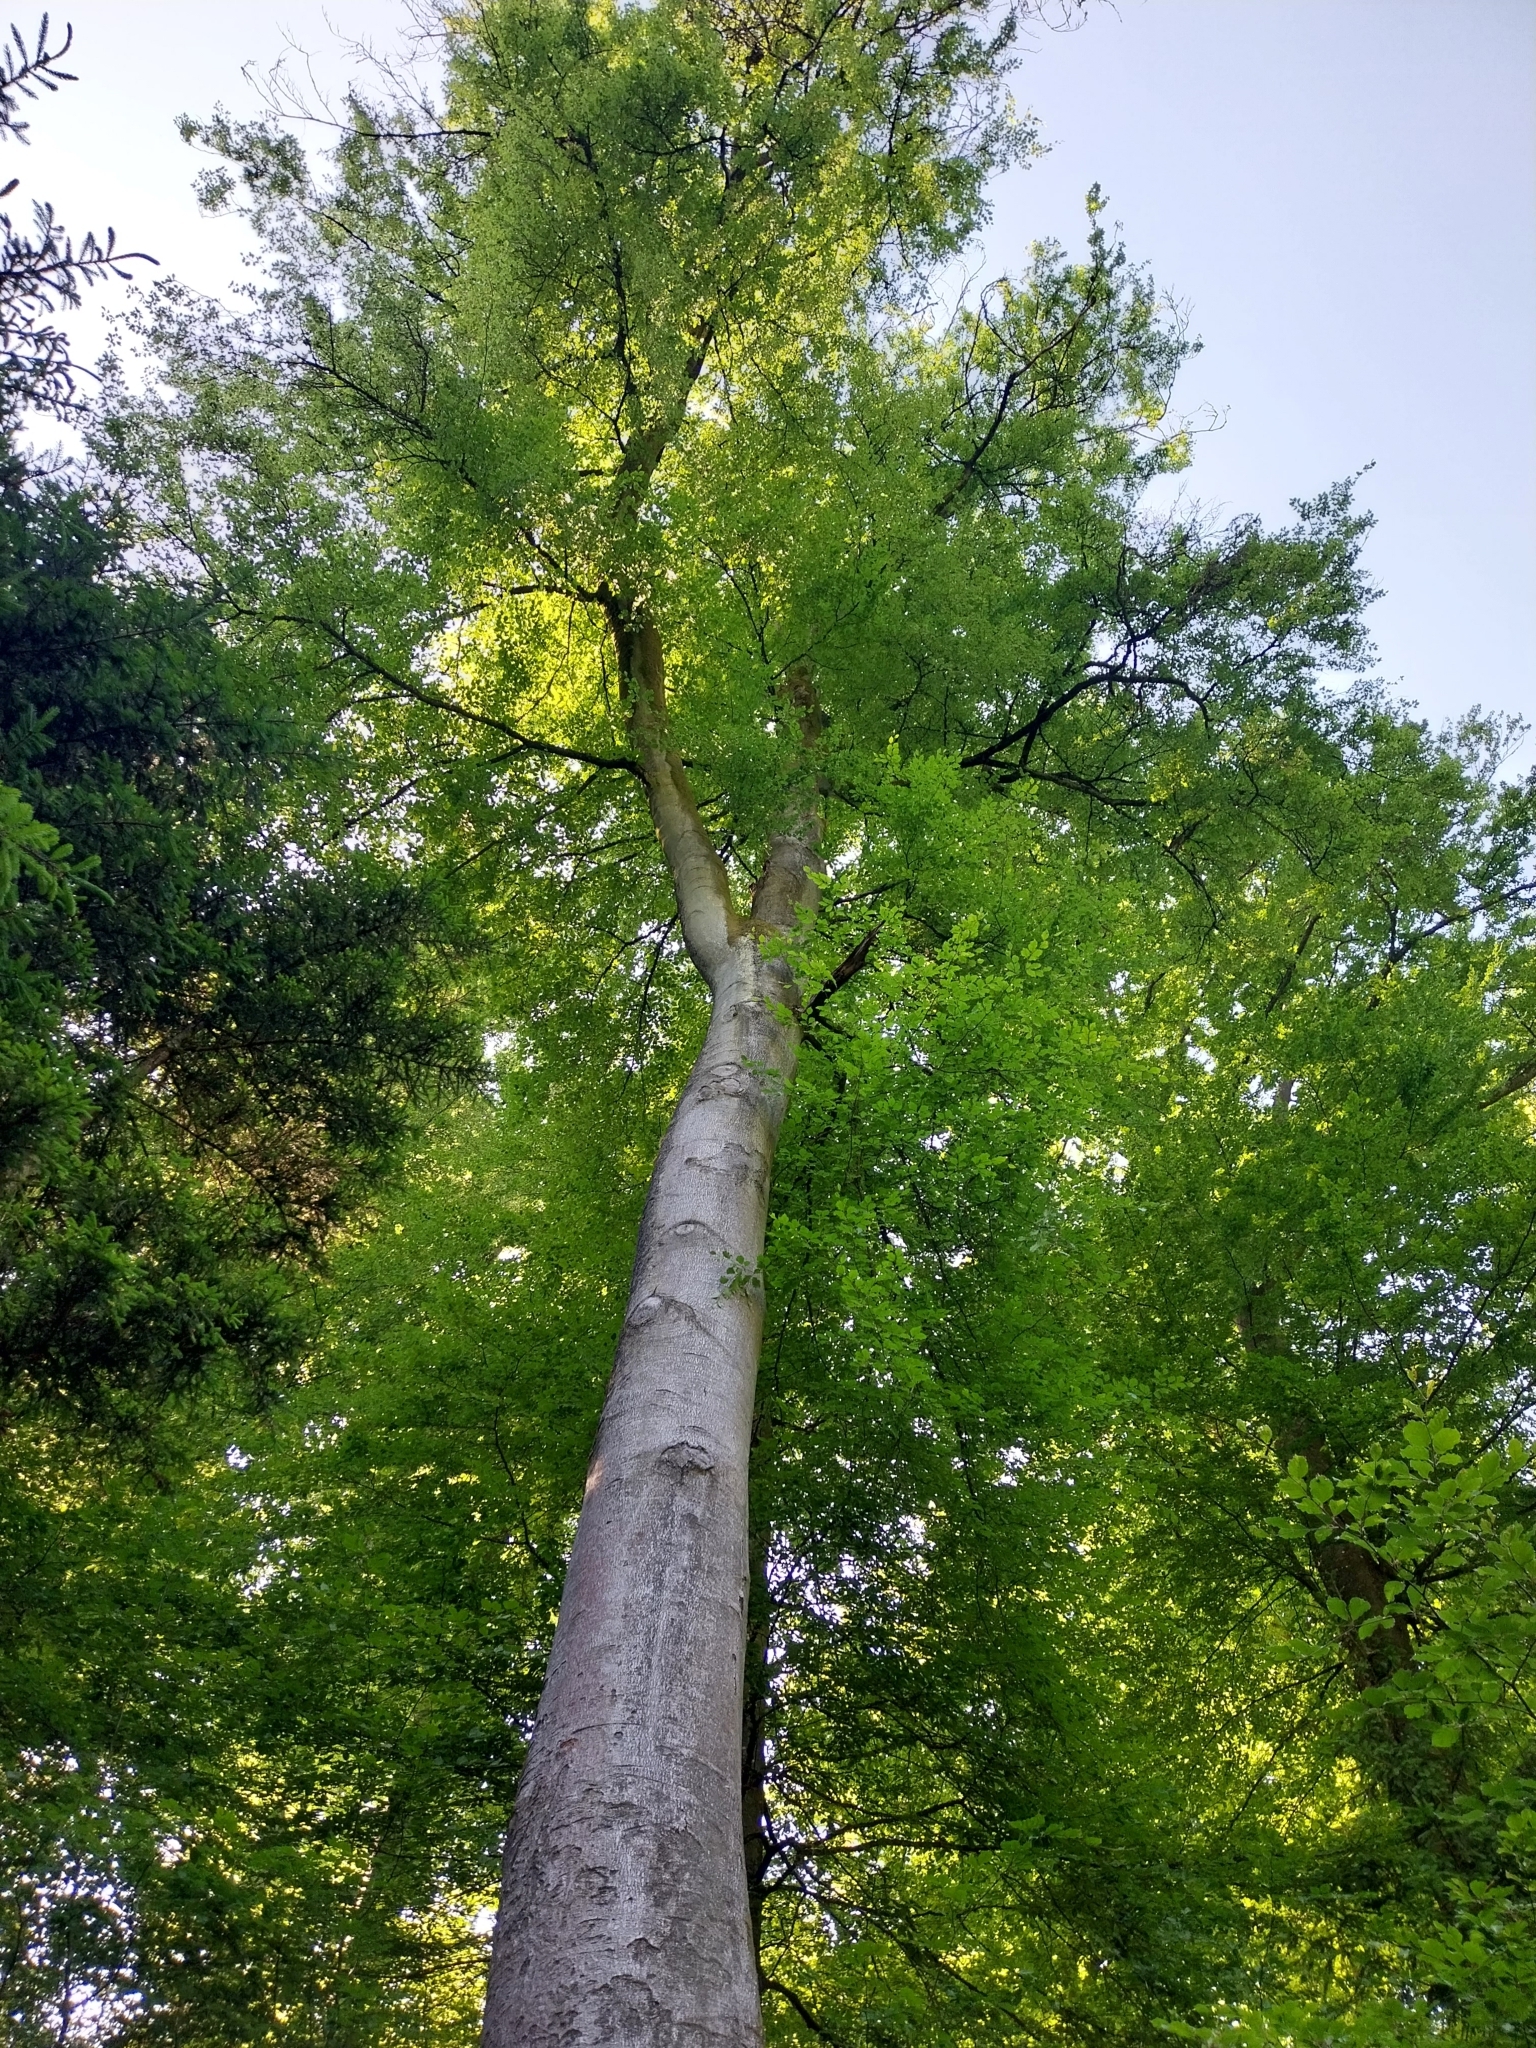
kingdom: Plantae
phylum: Tracheophyta
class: Magnoliopsida
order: Fagales
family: Fagaceae
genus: Fagus
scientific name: Fagus sylvatica
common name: Beech
